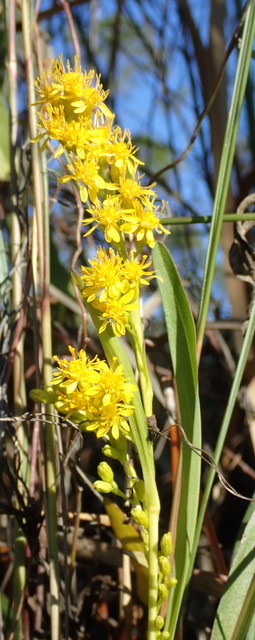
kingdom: Plantae
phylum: Tracheophyta
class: Magnoliopsida
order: Asterales
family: Asteraceae
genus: Solidago
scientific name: Solidago mexicana
